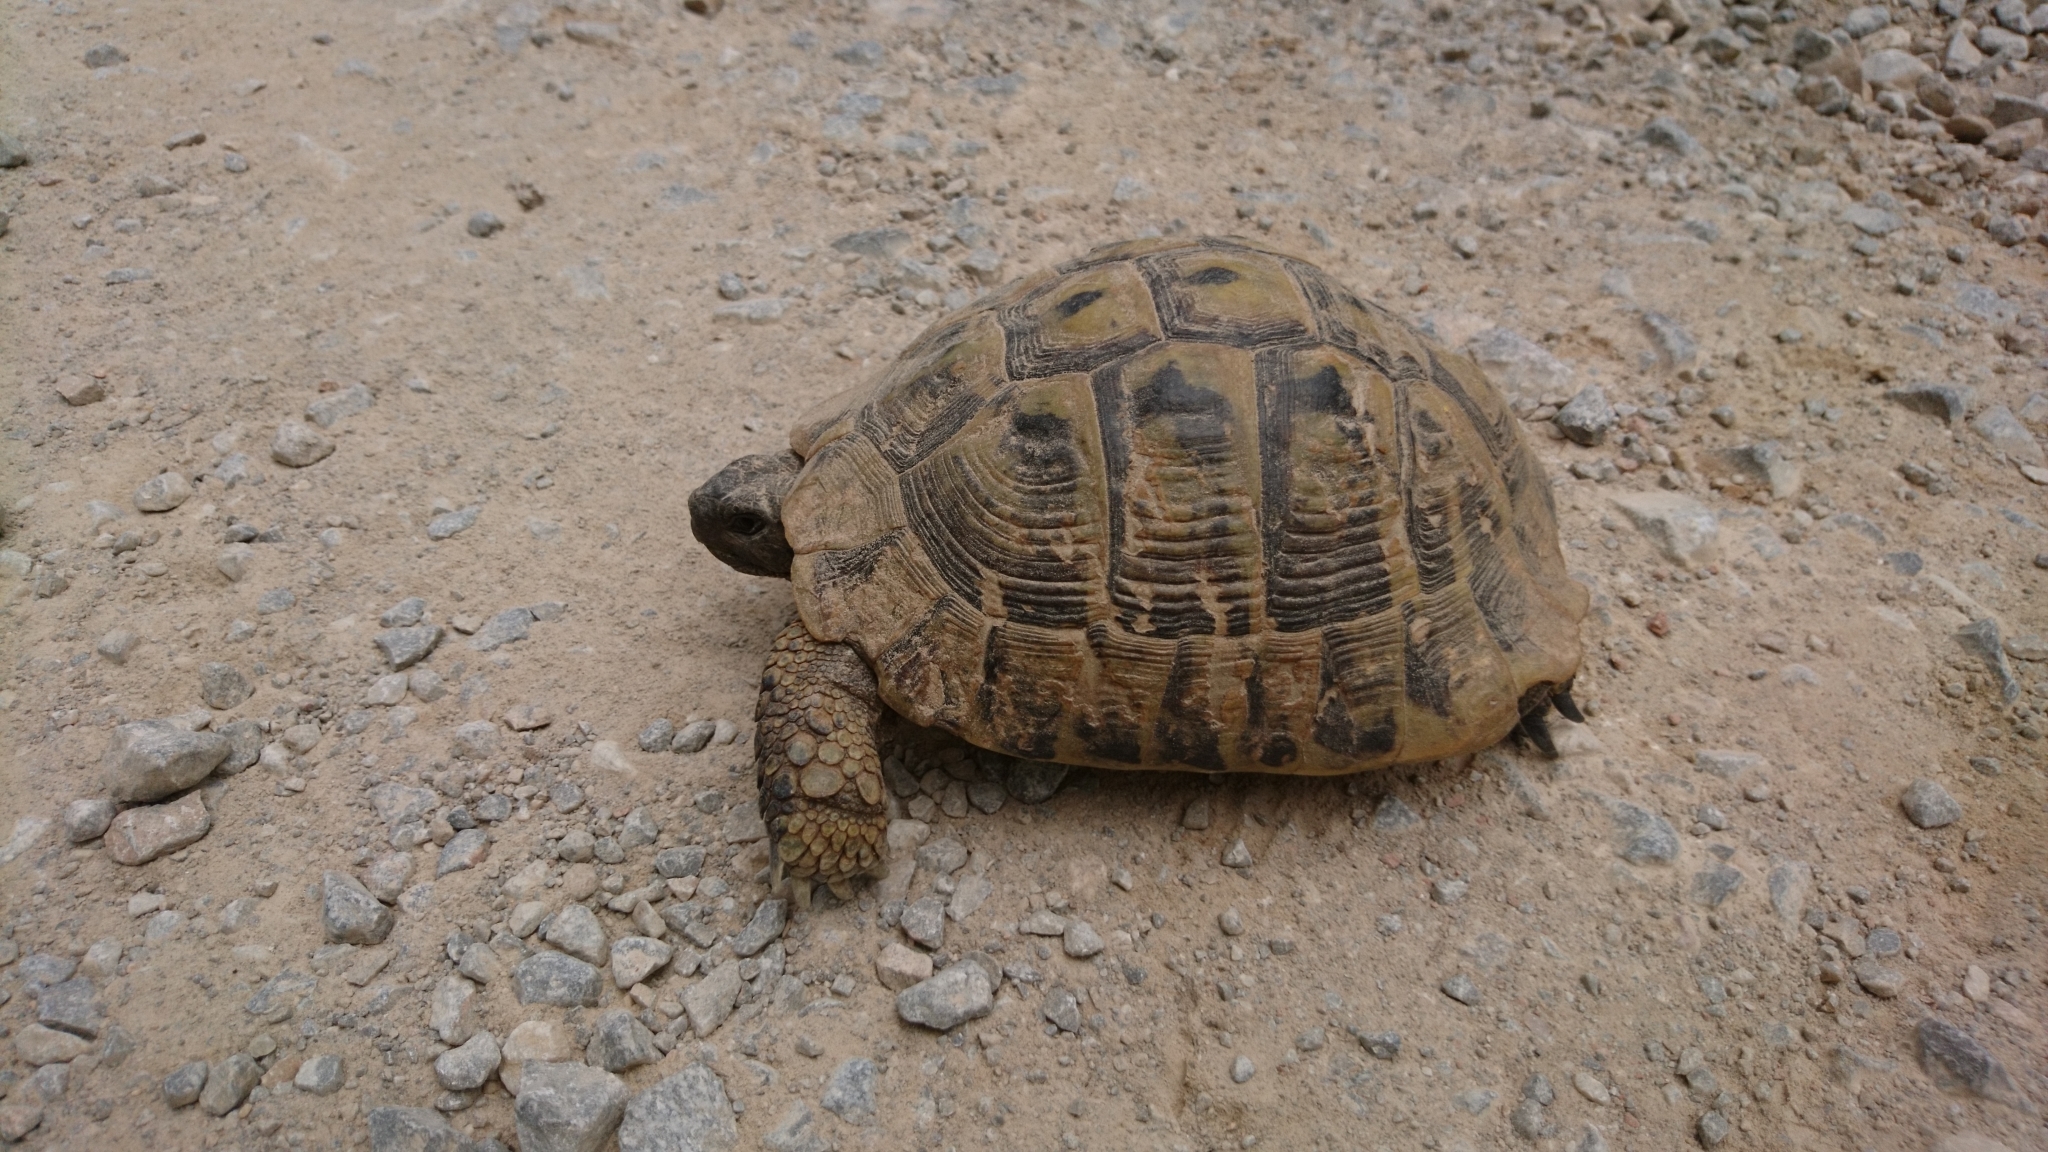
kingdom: Animalia
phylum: Chordata
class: Testudines
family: Testudinidae
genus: Testudo
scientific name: Testudo hermanni
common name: Hermann's tortoise
